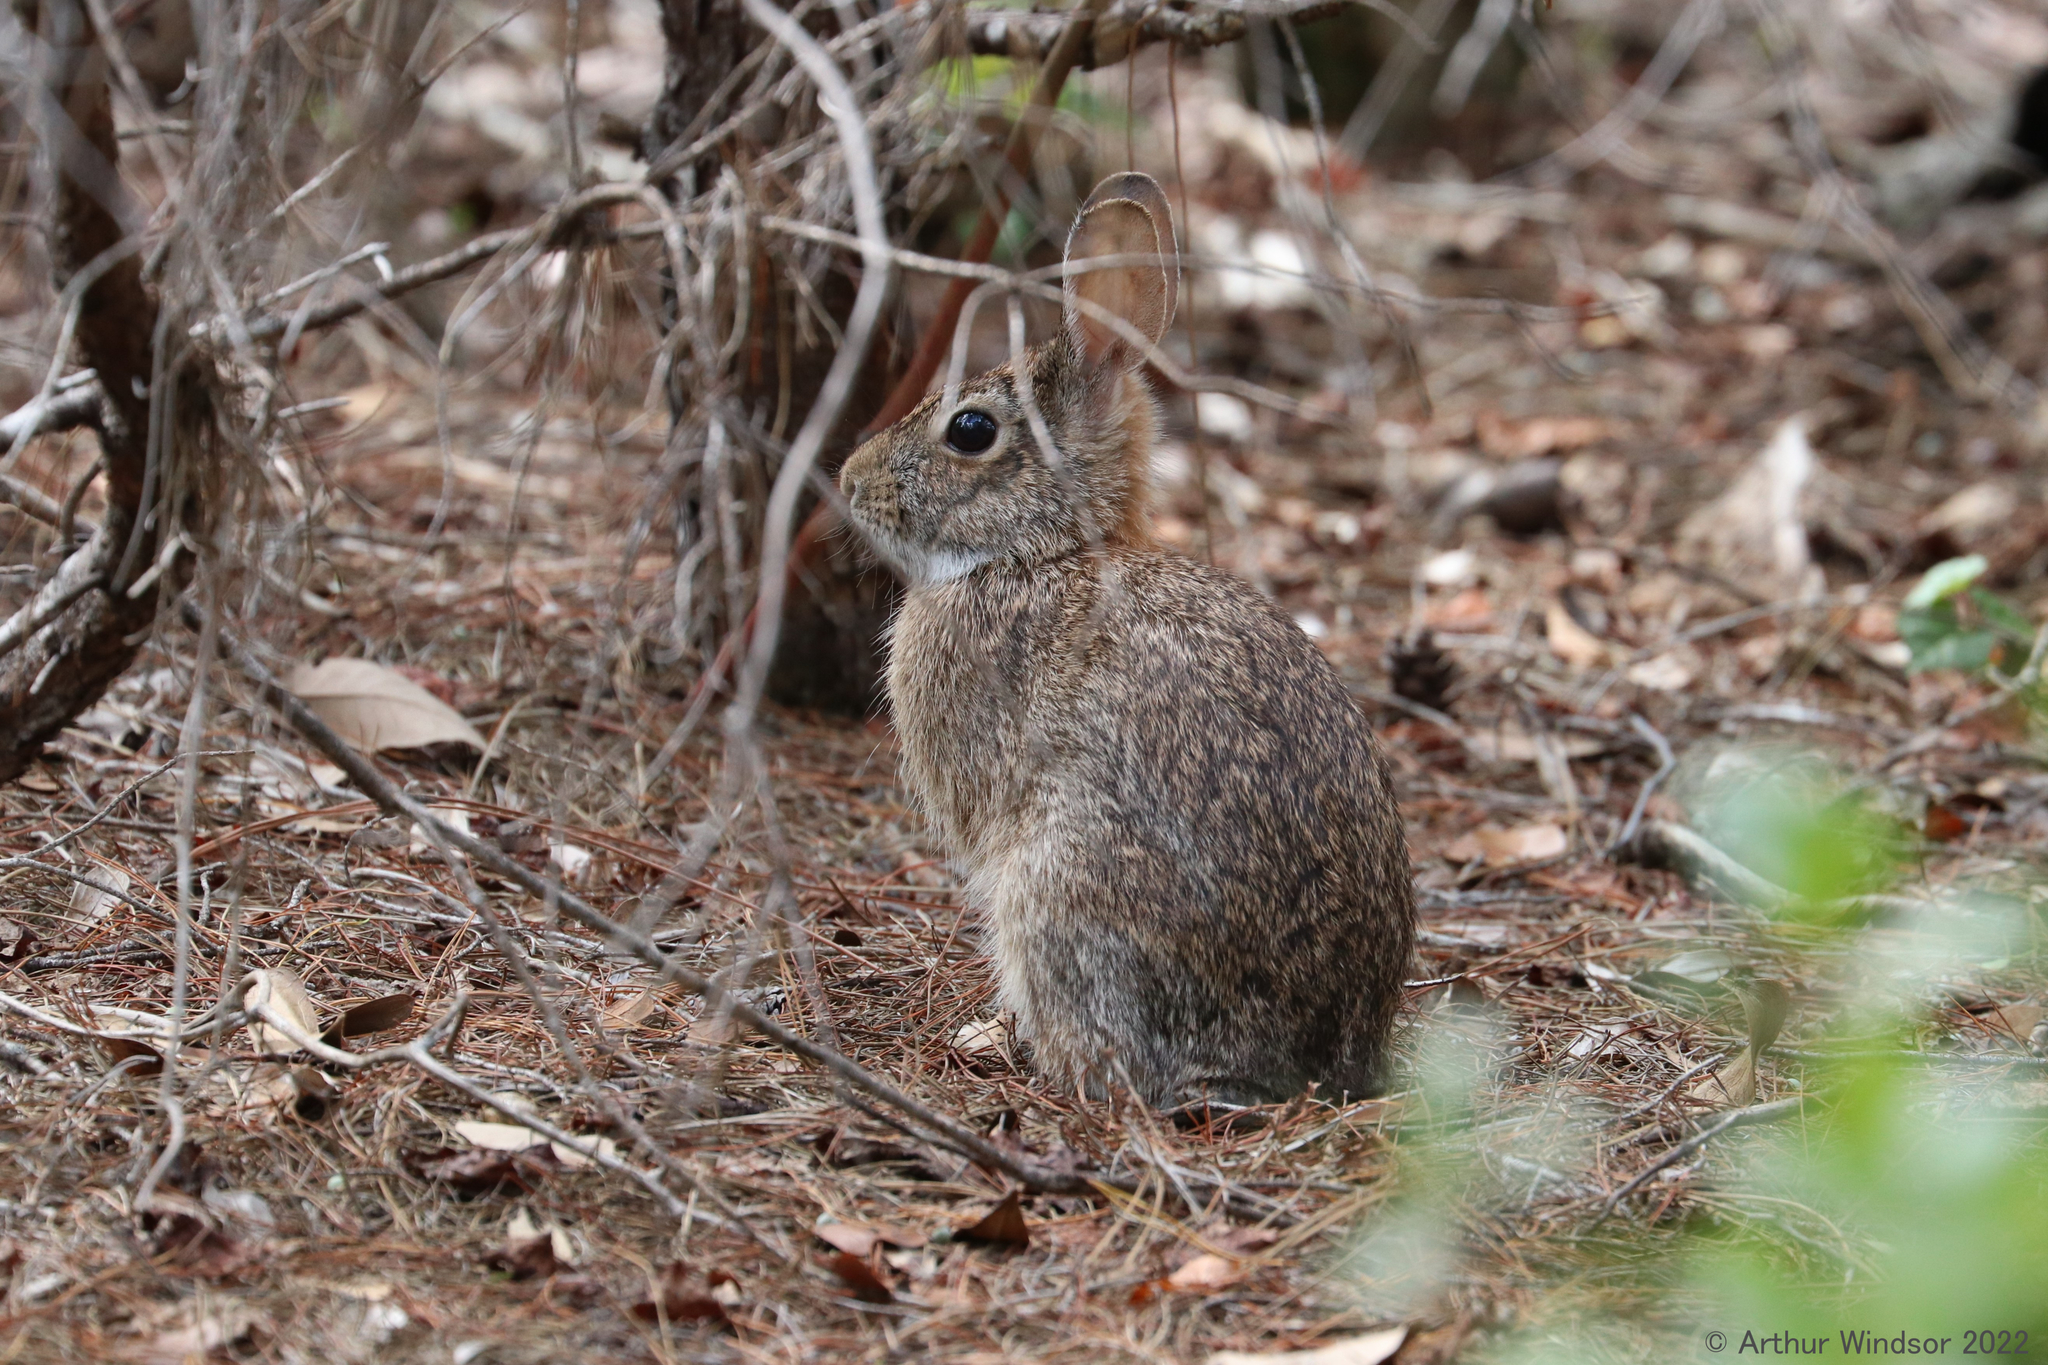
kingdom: Animalia
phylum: Chordata
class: Mammalia
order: Lagomorpha
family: Leporidae
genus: Sylvilagus
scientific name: Sylvilagus floridanus
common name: Eastern cottontail
